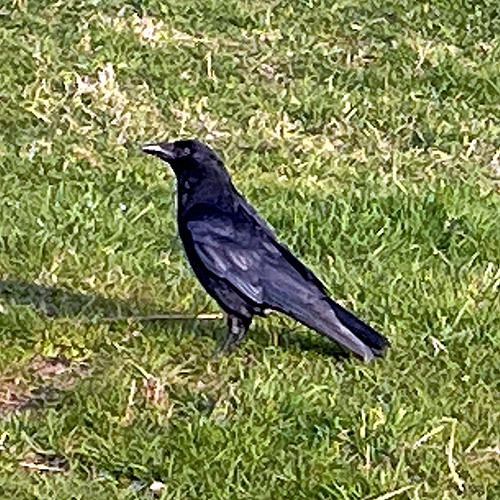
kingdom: Animalia
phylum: Chordata
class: Aves
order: Passeriformes
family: Corvidae
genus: Corvus
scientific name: Corvus corone
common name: Carrion crow
